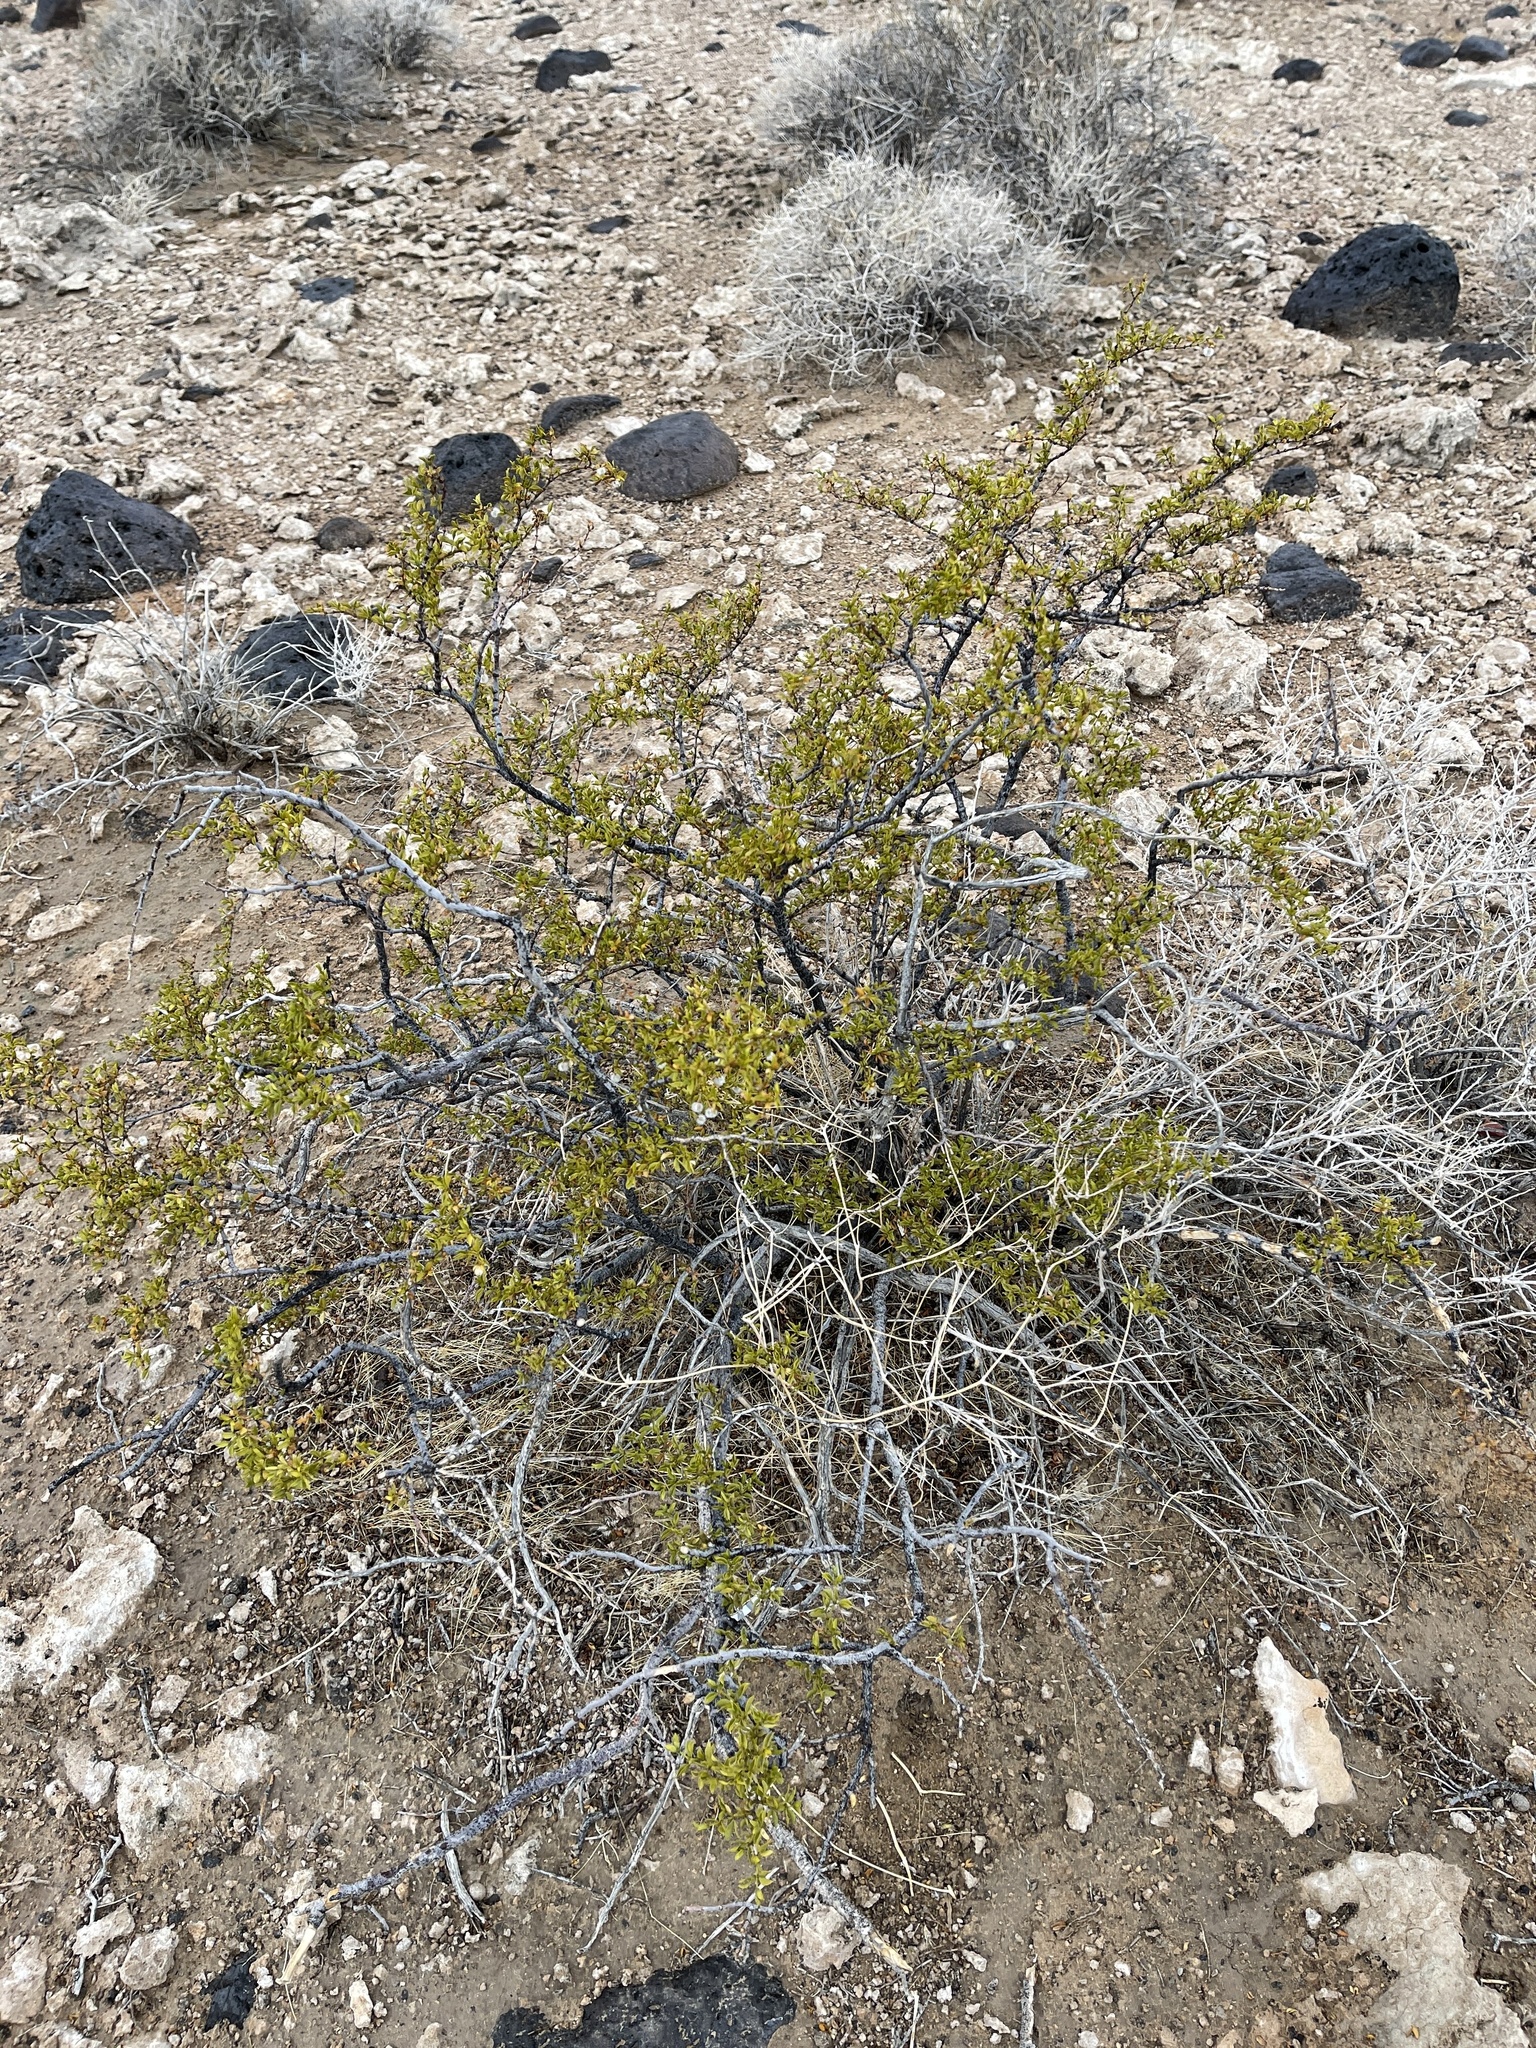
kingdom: Plantae
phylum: Tracheophyta
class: Magnoliopsida
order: Zygophyllales
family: Zygophyllaceae
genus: Larrea
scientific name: Larrea tridentata
